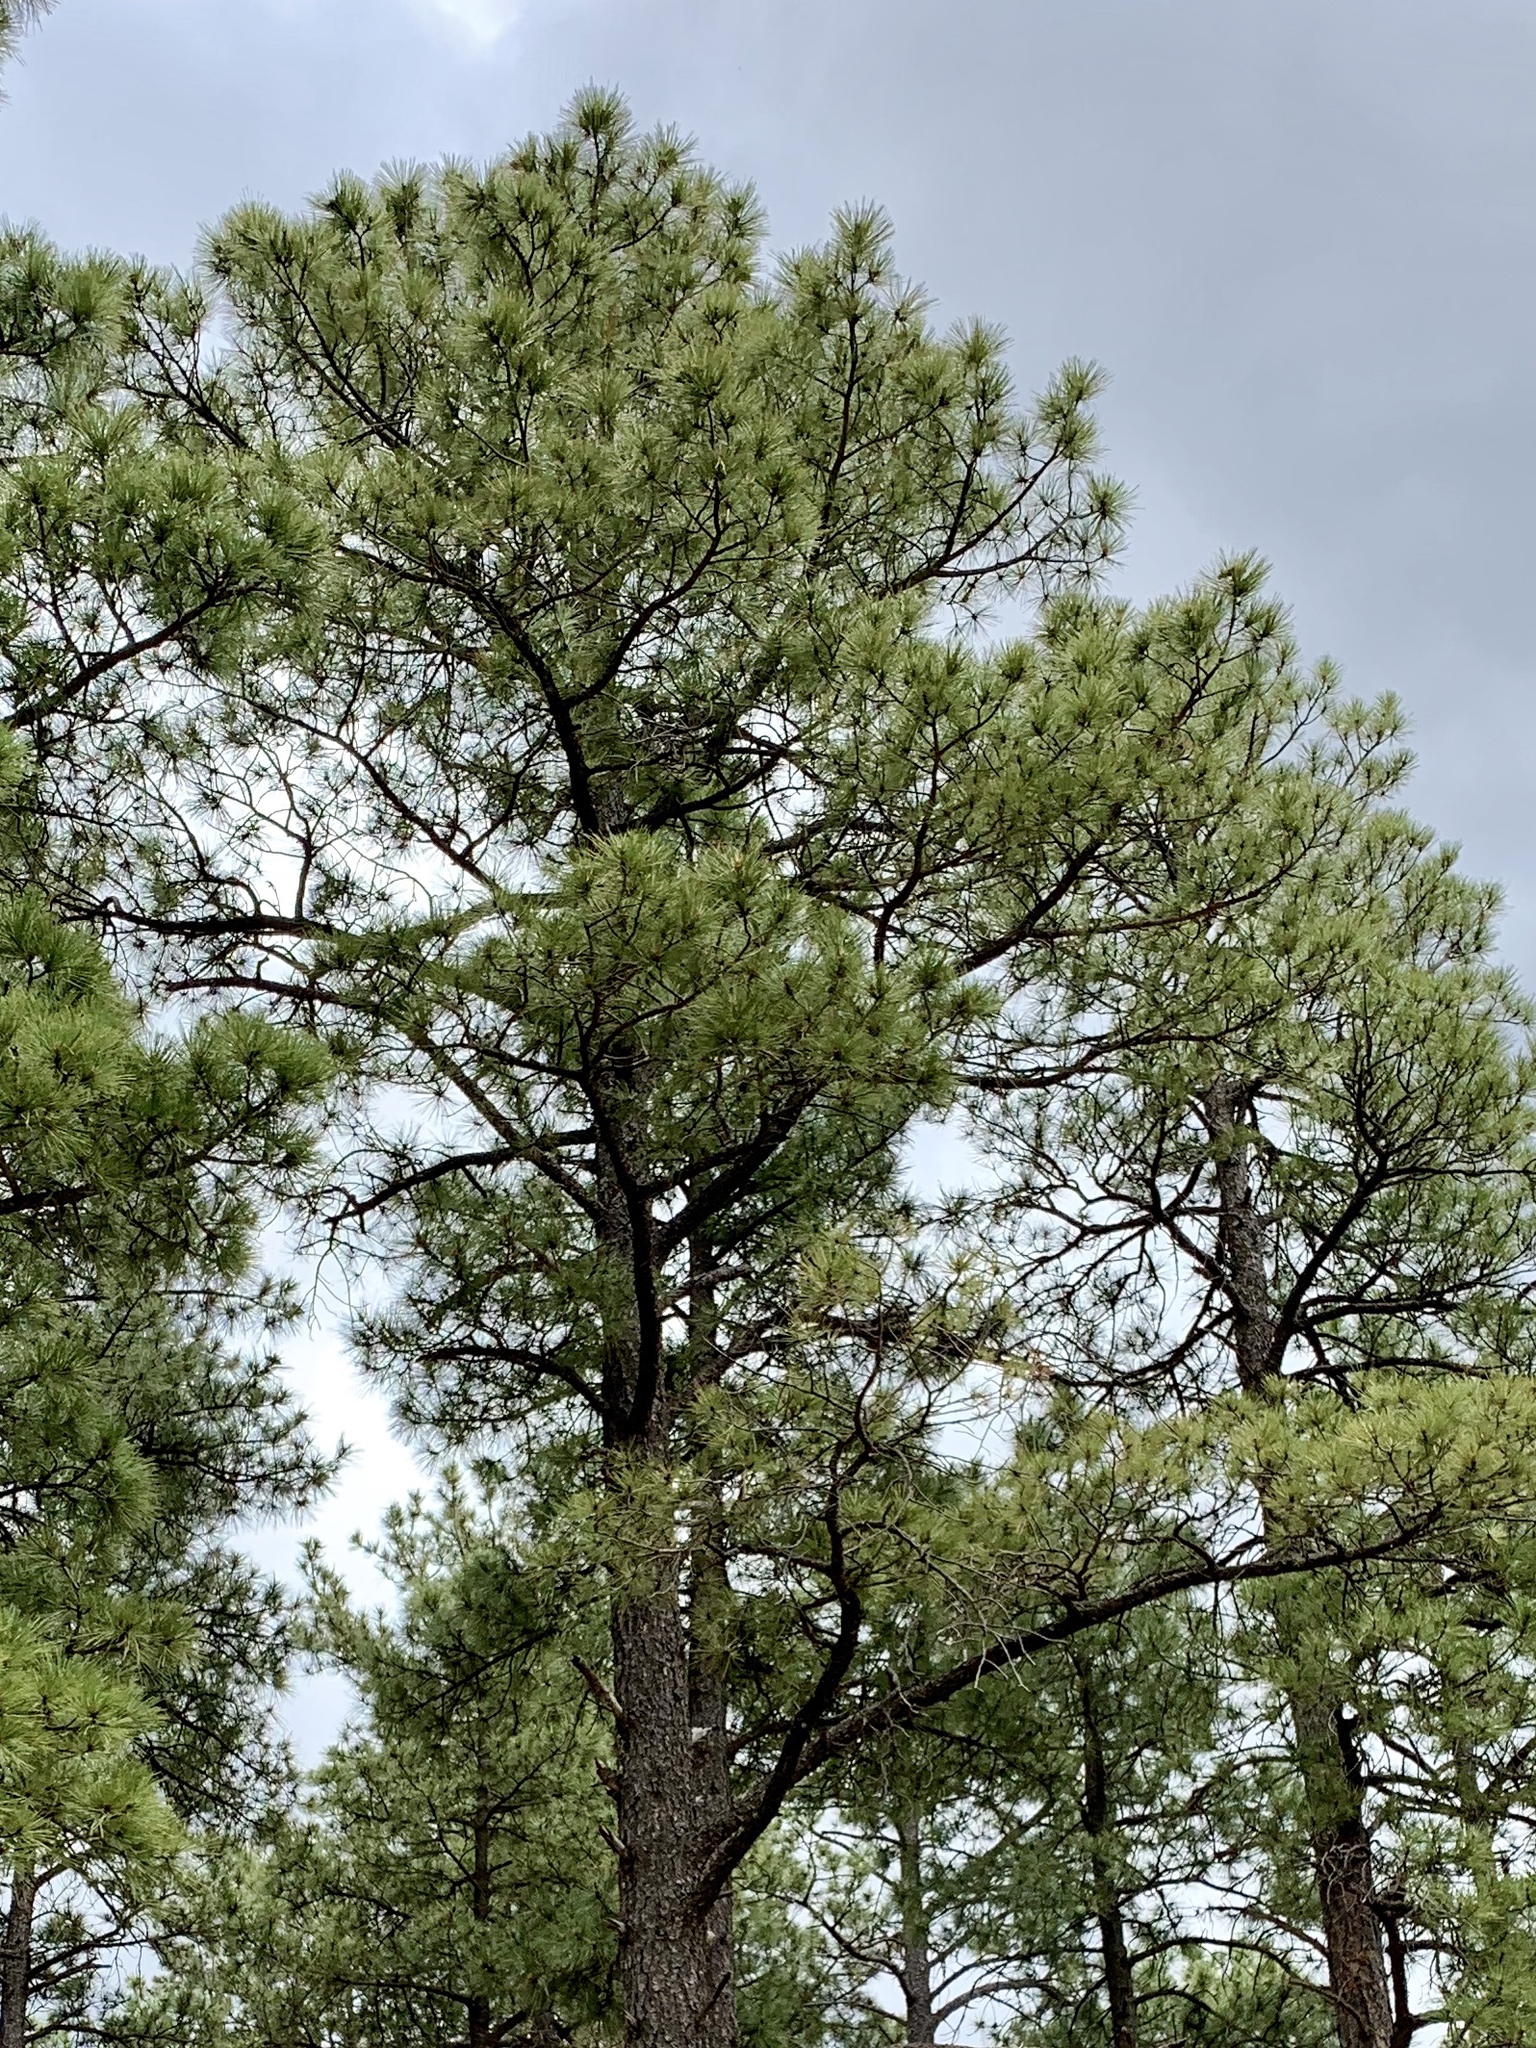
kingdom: Plantae
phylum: Tracheophyta
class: Pinopsida
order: Pinales
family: Pinaceae
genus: Pinus
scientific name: Pinus ponderosa
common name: Western yellow-pine
